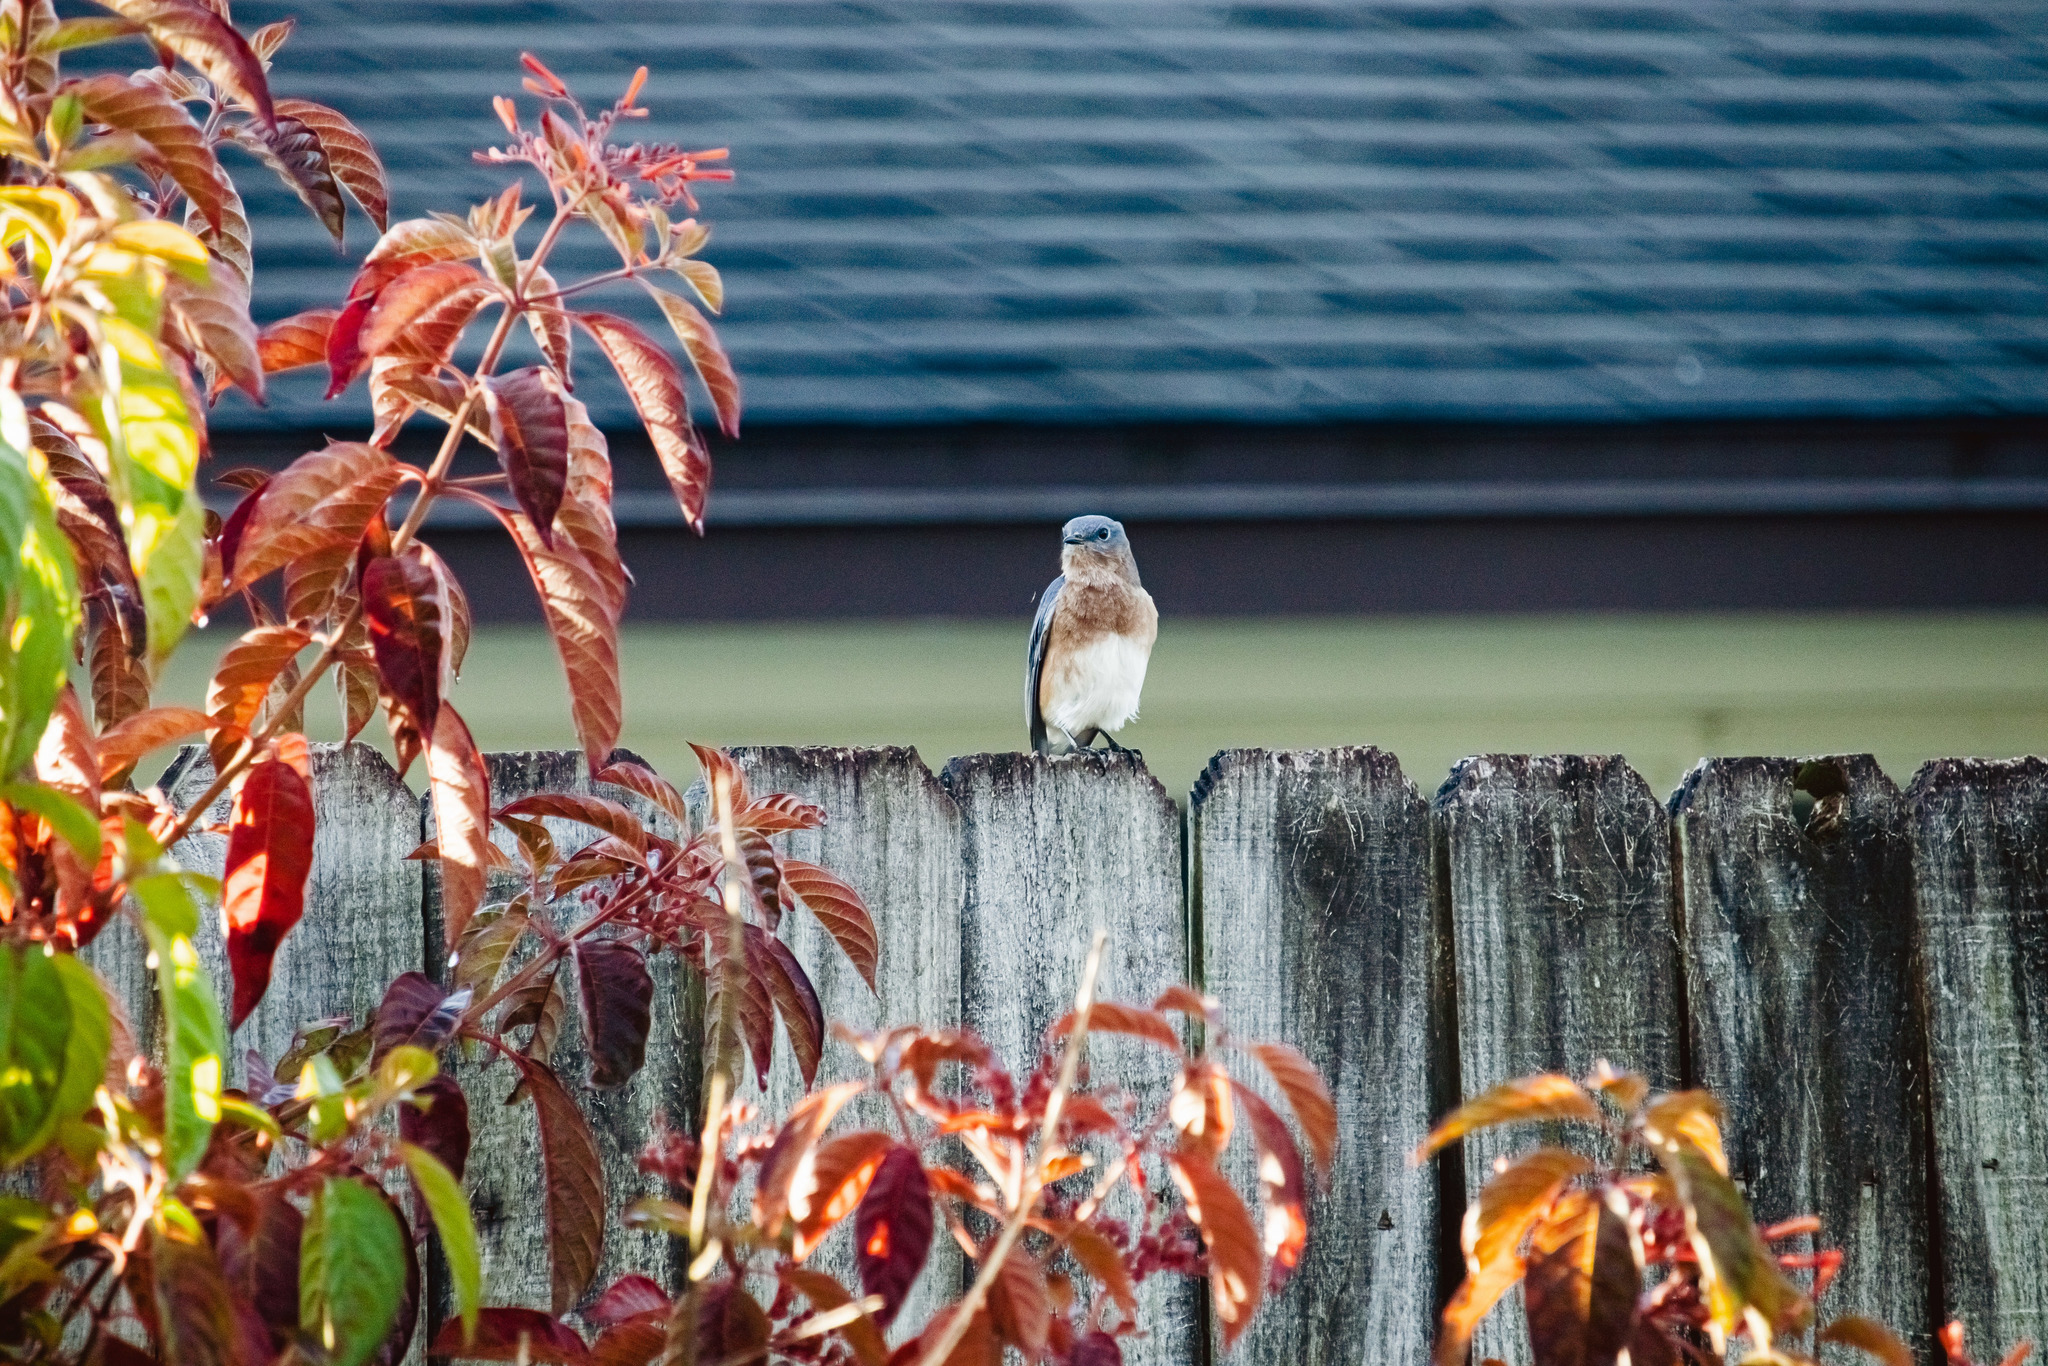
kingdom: Animalia
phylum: Chordata
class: Aves
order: Passeriformes
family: Turdidae
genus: Sialia
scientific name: Sialia sialis
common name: Eastern bluebird
